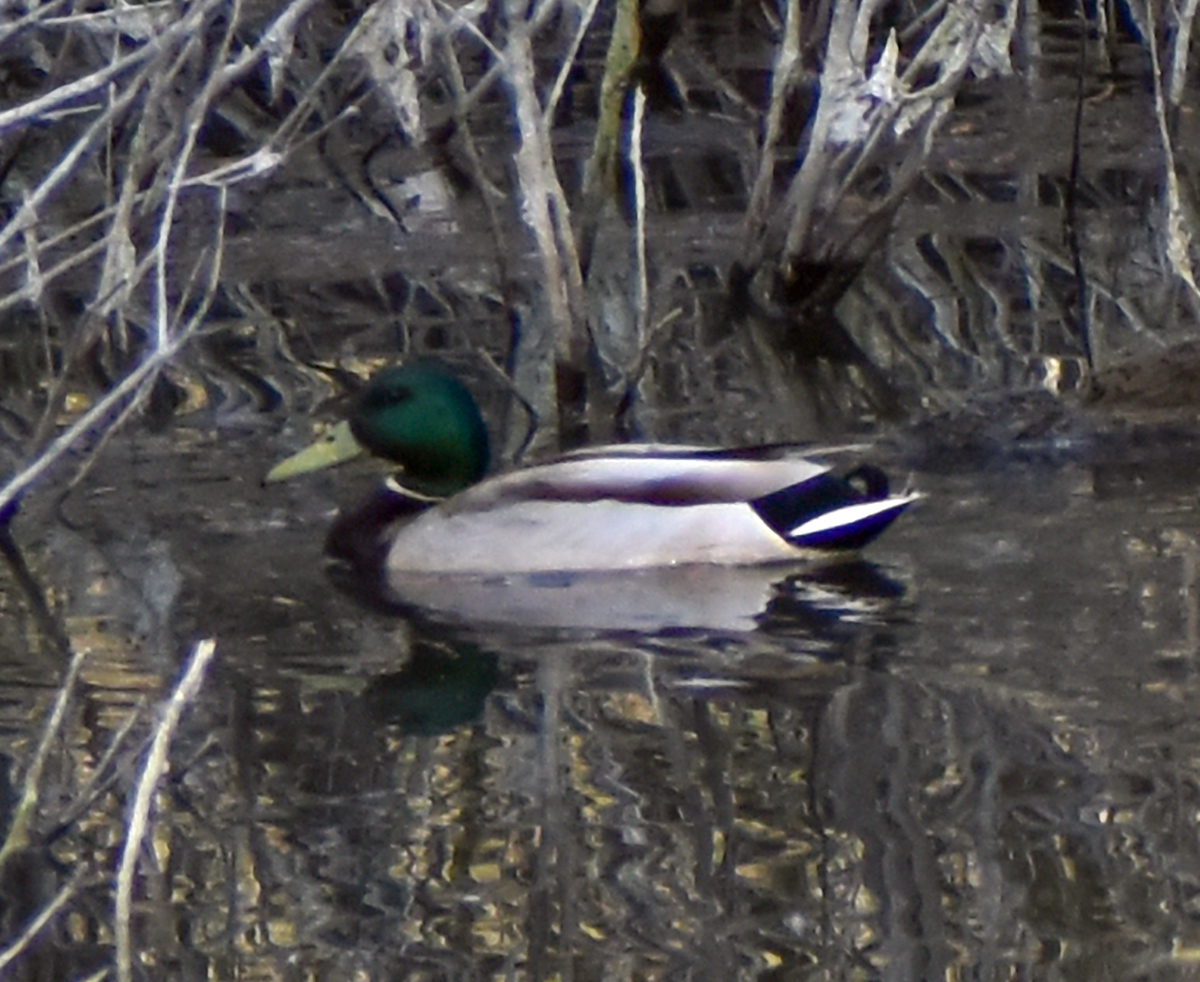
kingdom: Animalia
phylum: Chordata
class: Aves
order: Anseriformes
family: Anatidae
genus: Anas
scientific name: Anas platyrhynchos
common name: Mallard
